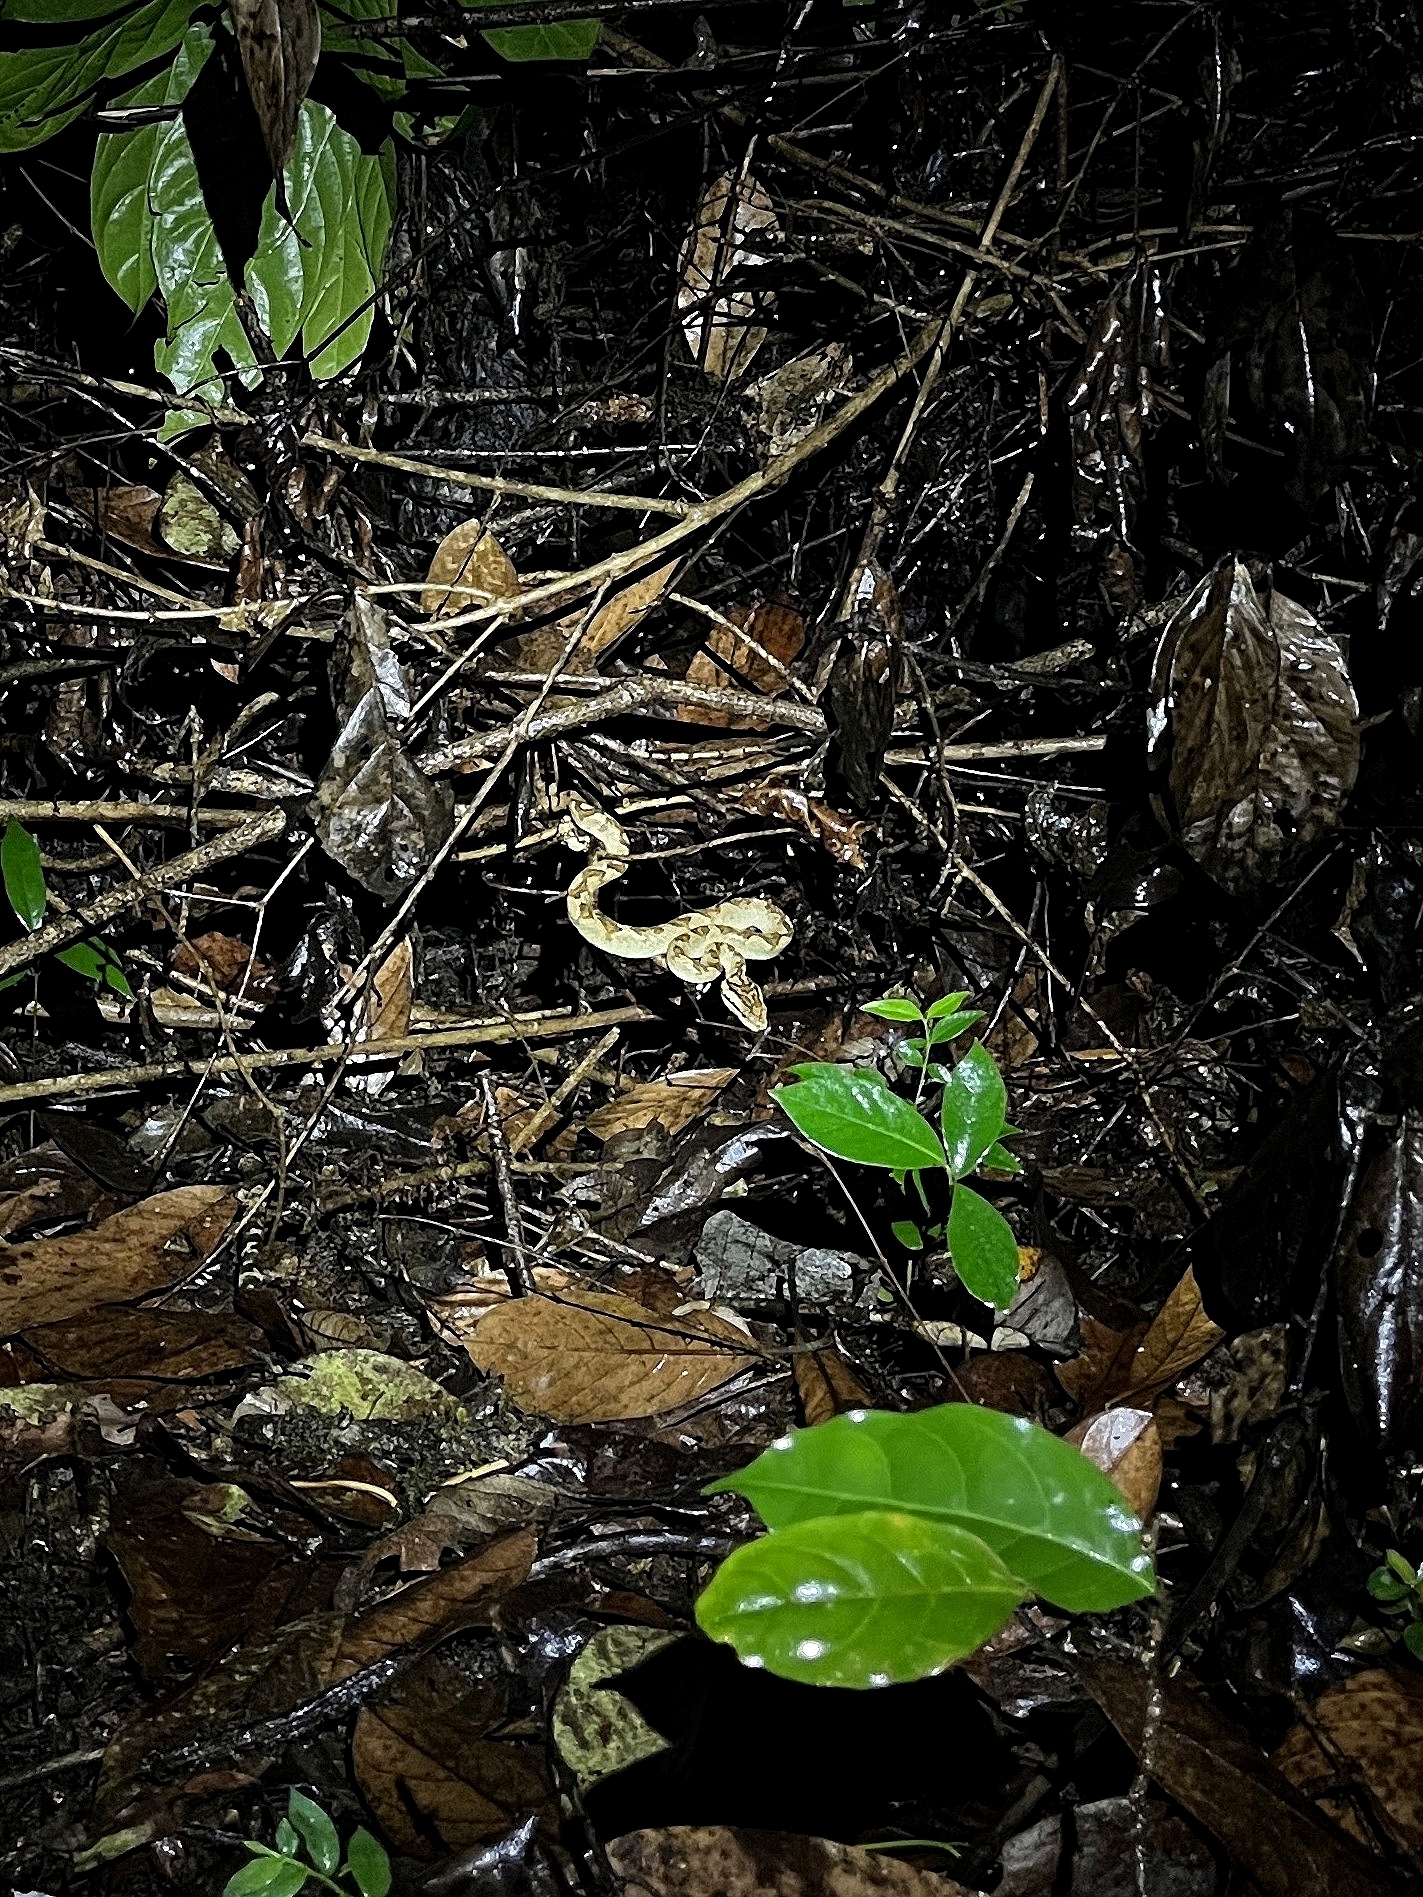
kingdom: Animalia
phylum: Chordata
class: Squamata
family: Viperidae
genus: Craspedocephalus
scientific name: Craspedocephalus malabaricus
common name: Malabarian pit viper
